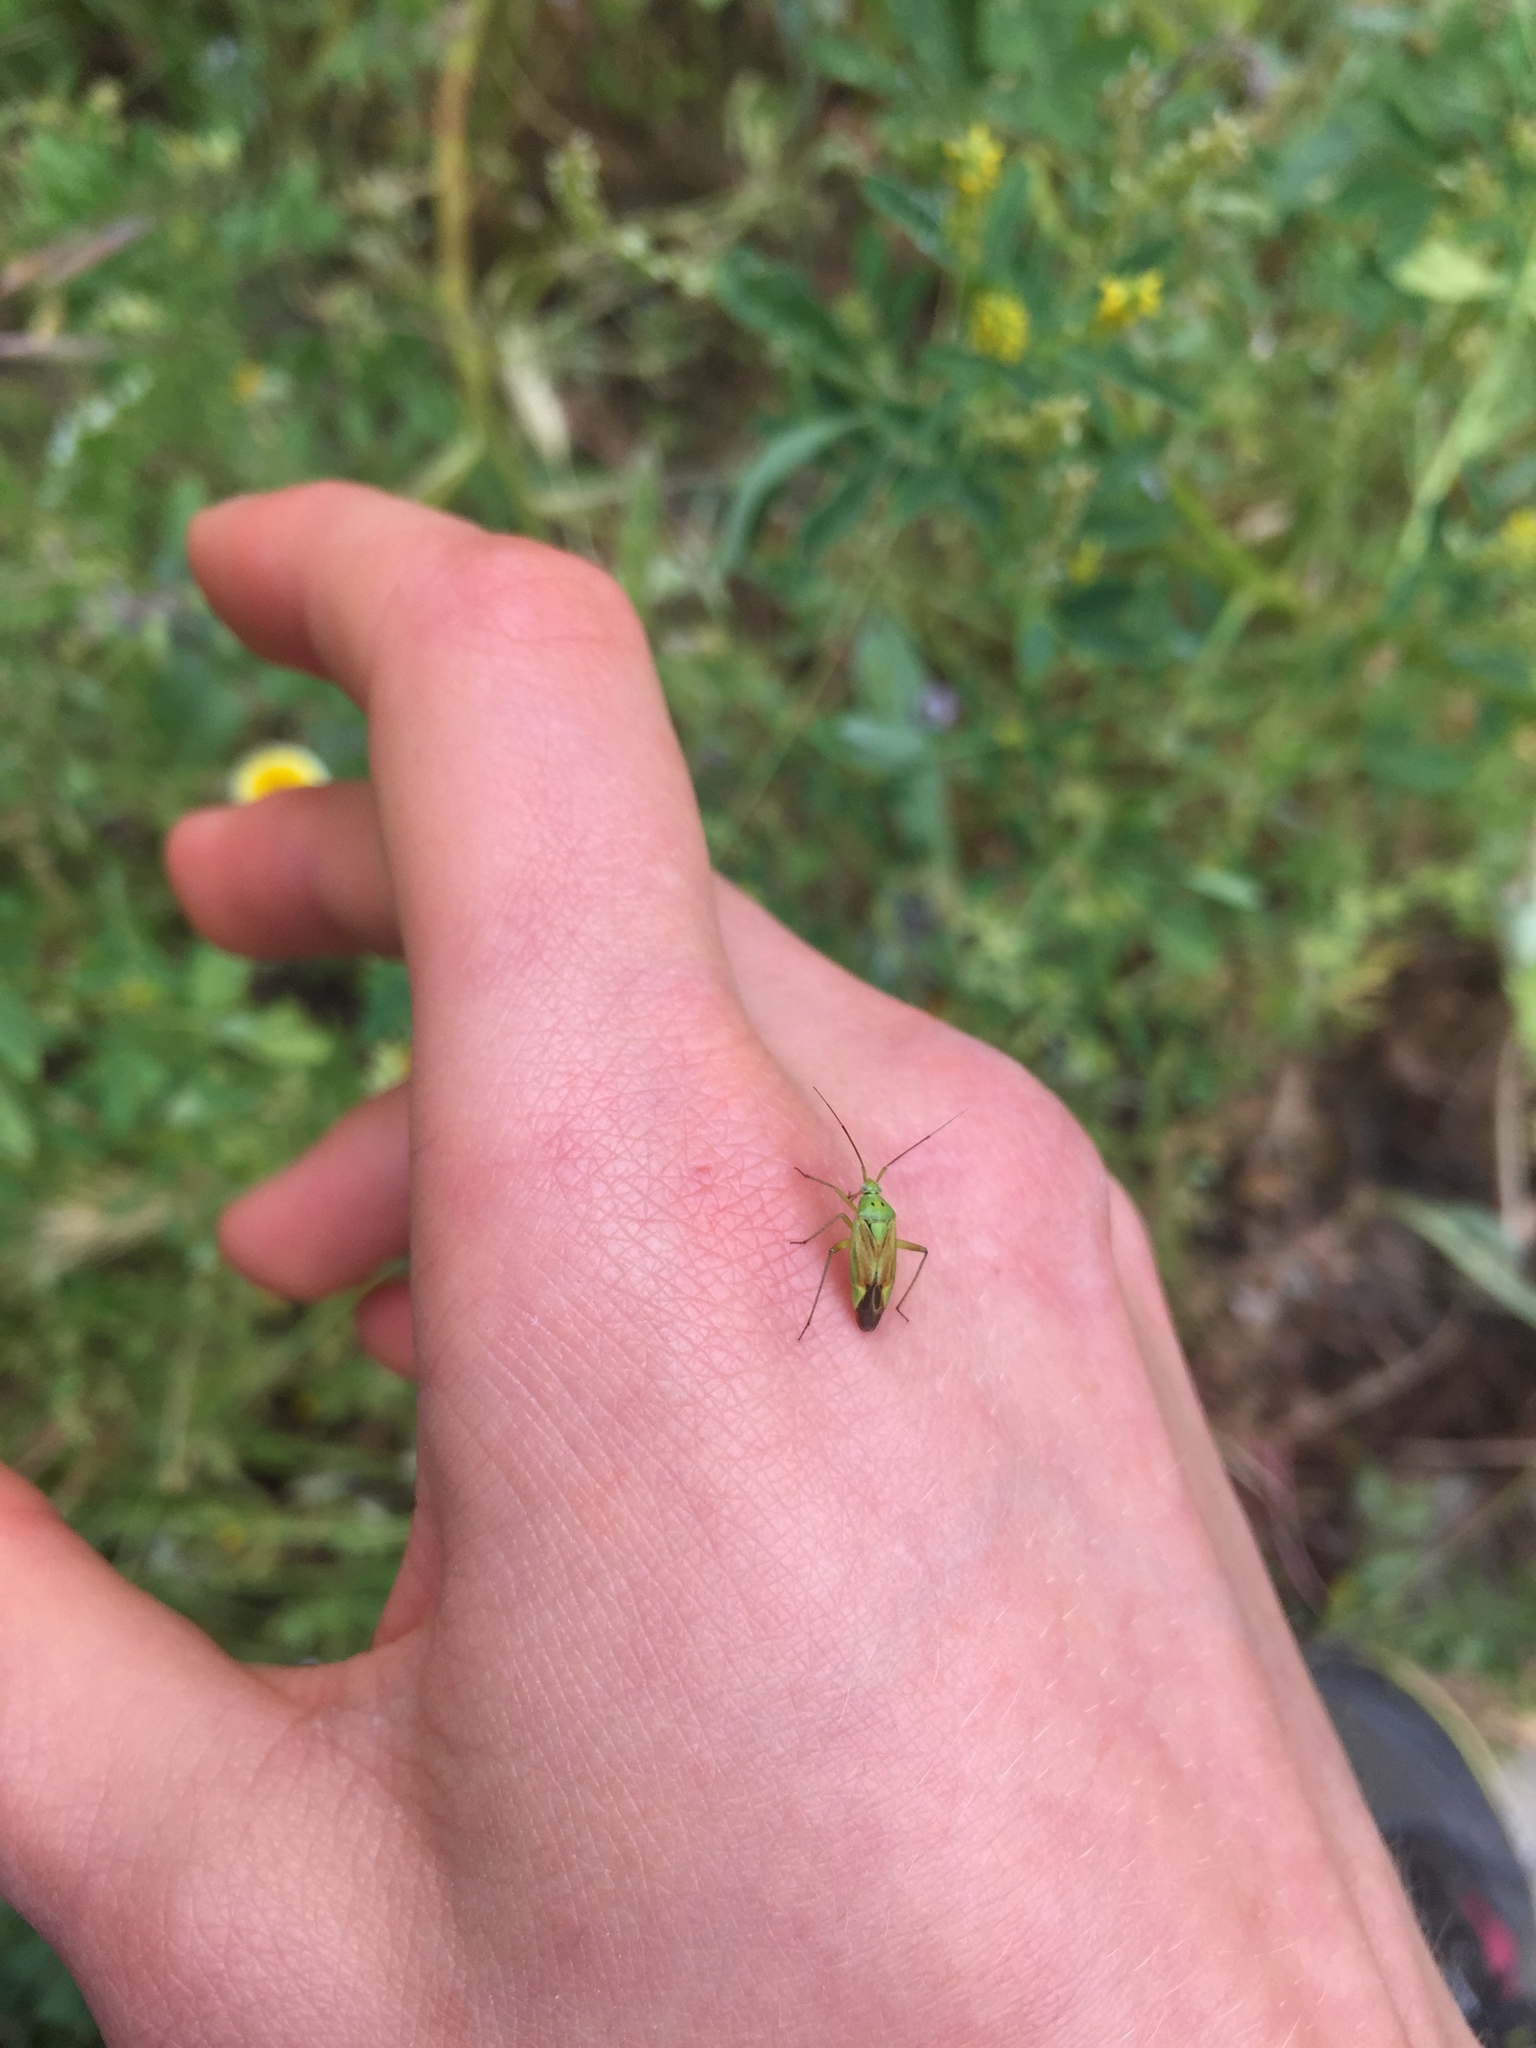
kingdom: Animalia
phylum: Arthropoda
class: Insecta
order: Hemiptera
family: Miridae
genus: Closterotomus
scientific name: Closterotomus norvegicus
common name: Plant bug
